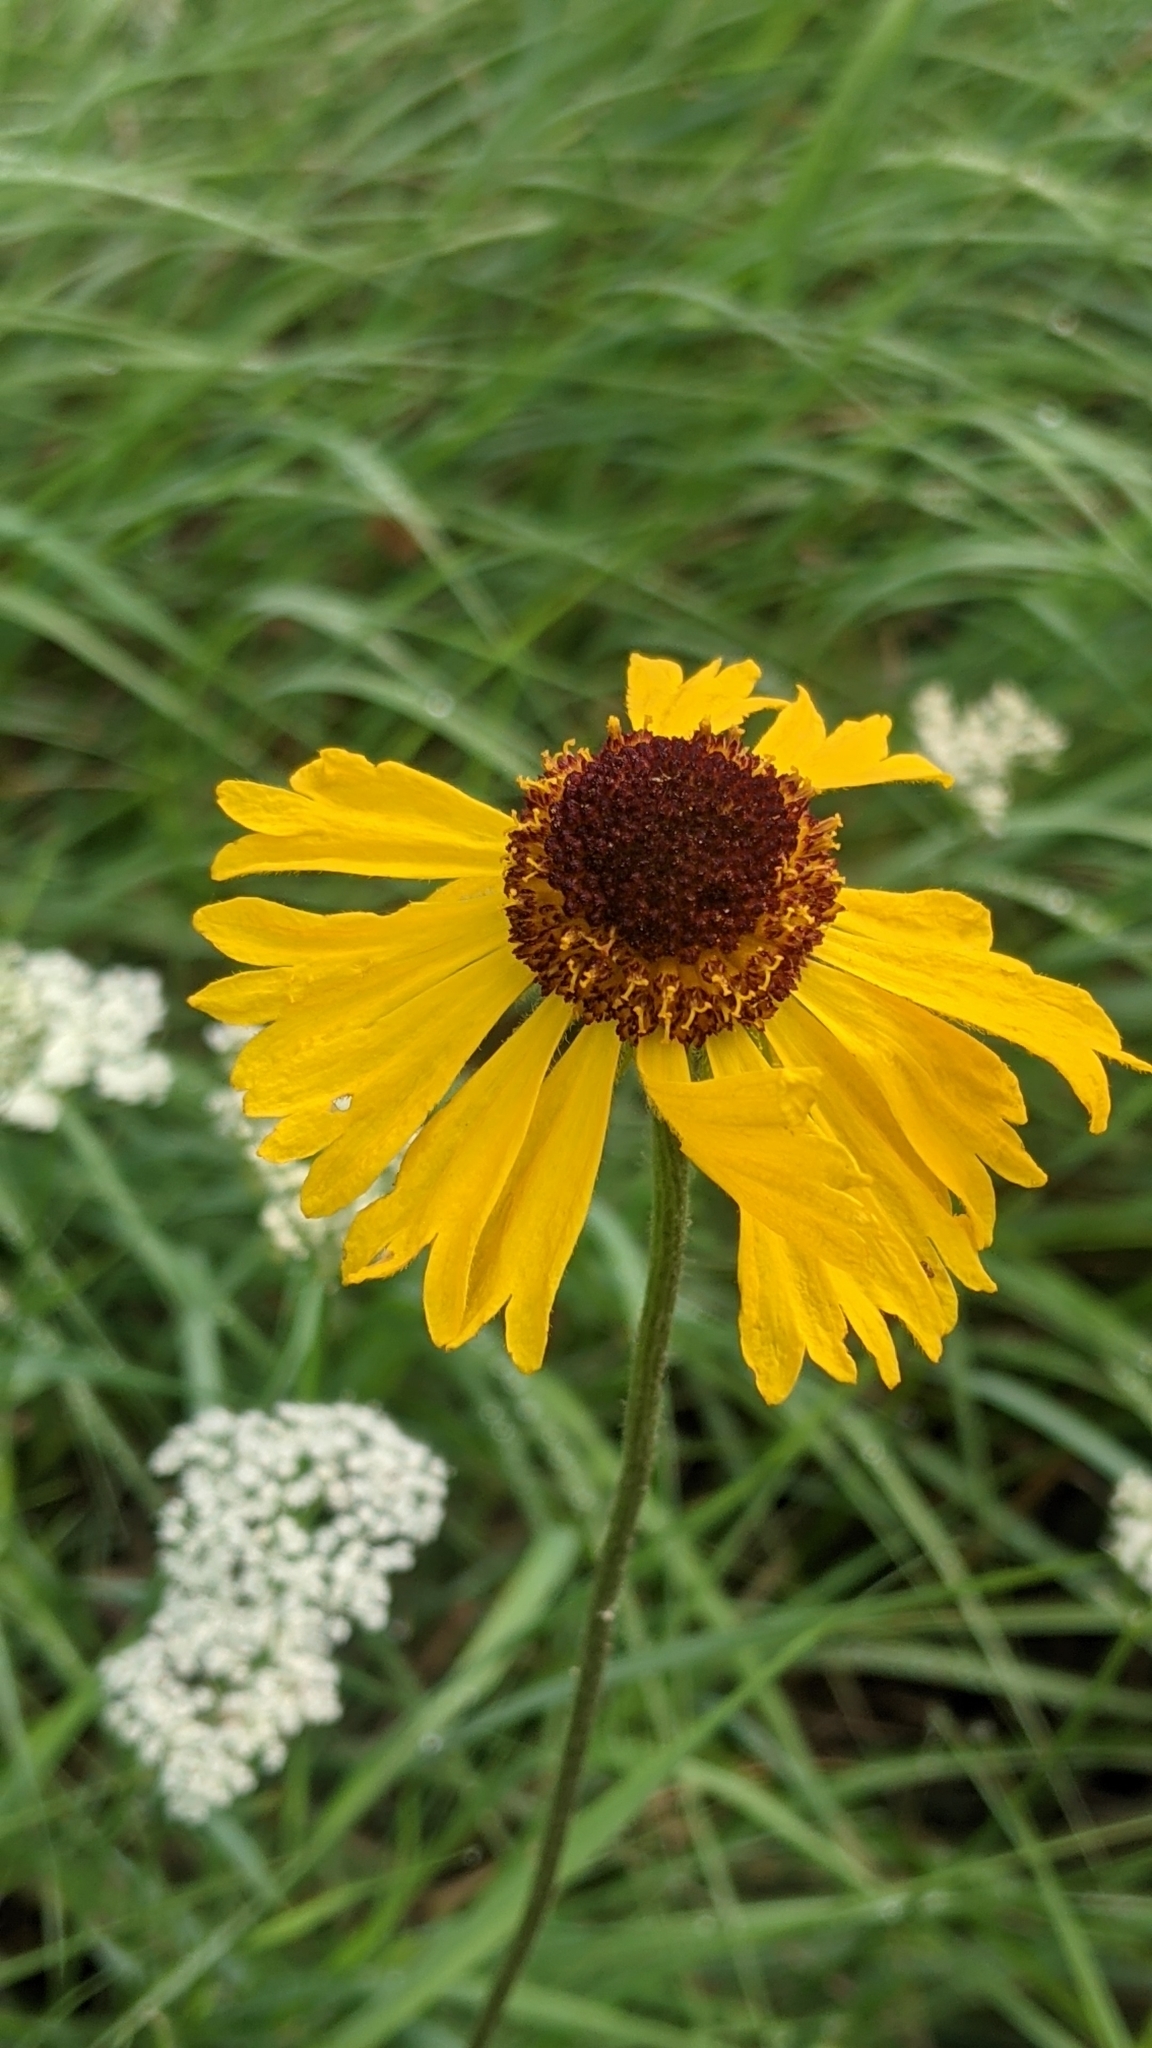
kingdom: Plantae
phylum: Tracheophyta
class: Magnoliopsida
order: Asterales
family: Asteraceae
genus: Helenium
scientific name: Helenium bigelovii
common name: Bigelow's sneezeweed
